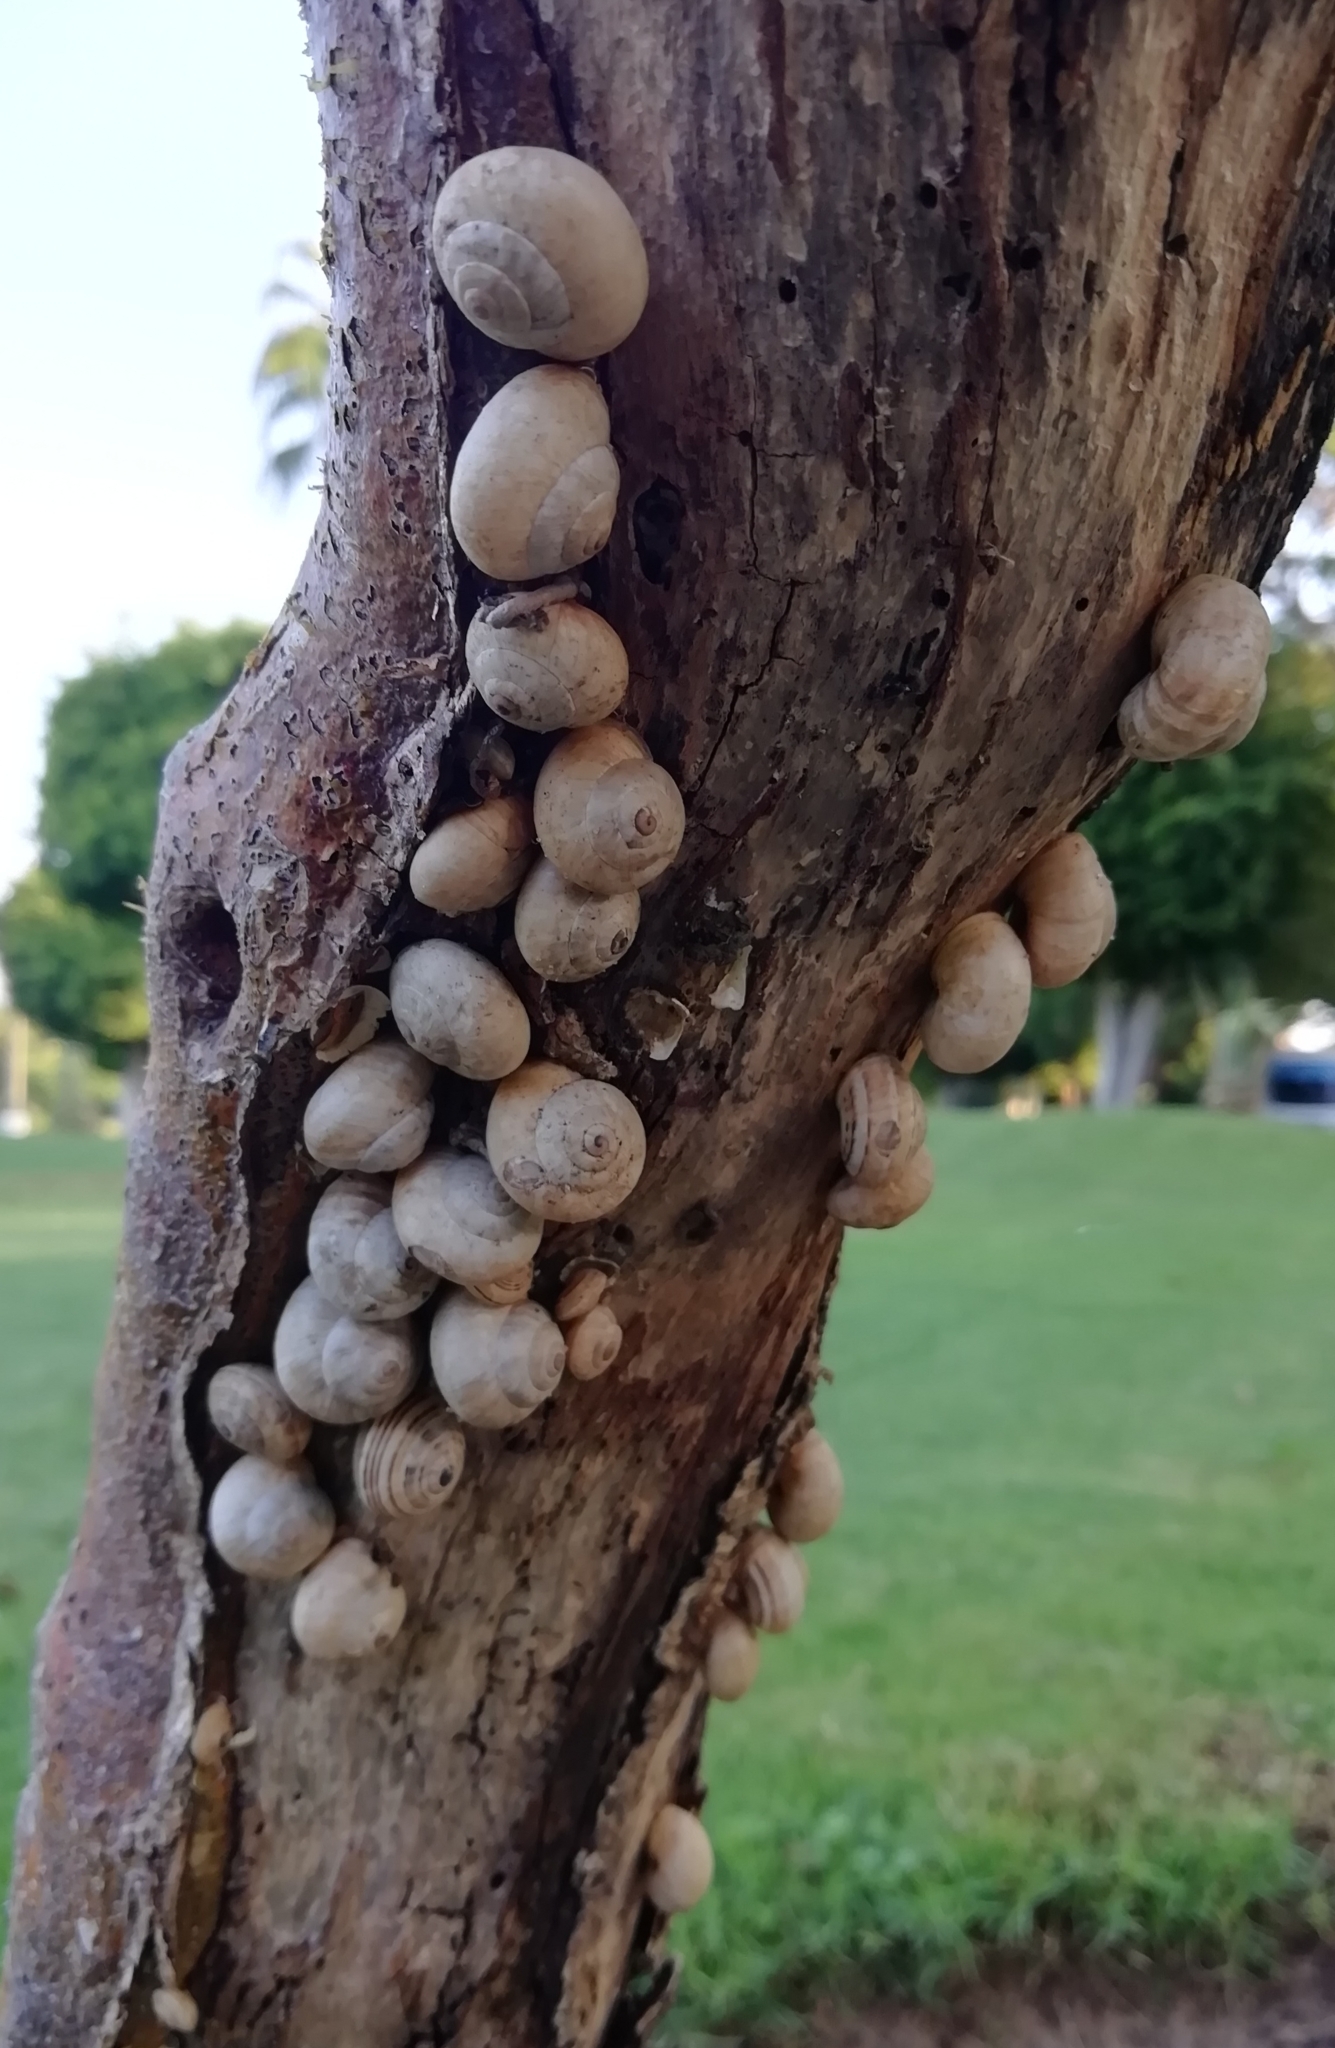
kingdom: Animalia
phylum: Mollusca
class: Gastropoda
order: Stylommatophora
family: Helicidae
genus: Theba
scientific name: Theba pisana
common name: White snail
